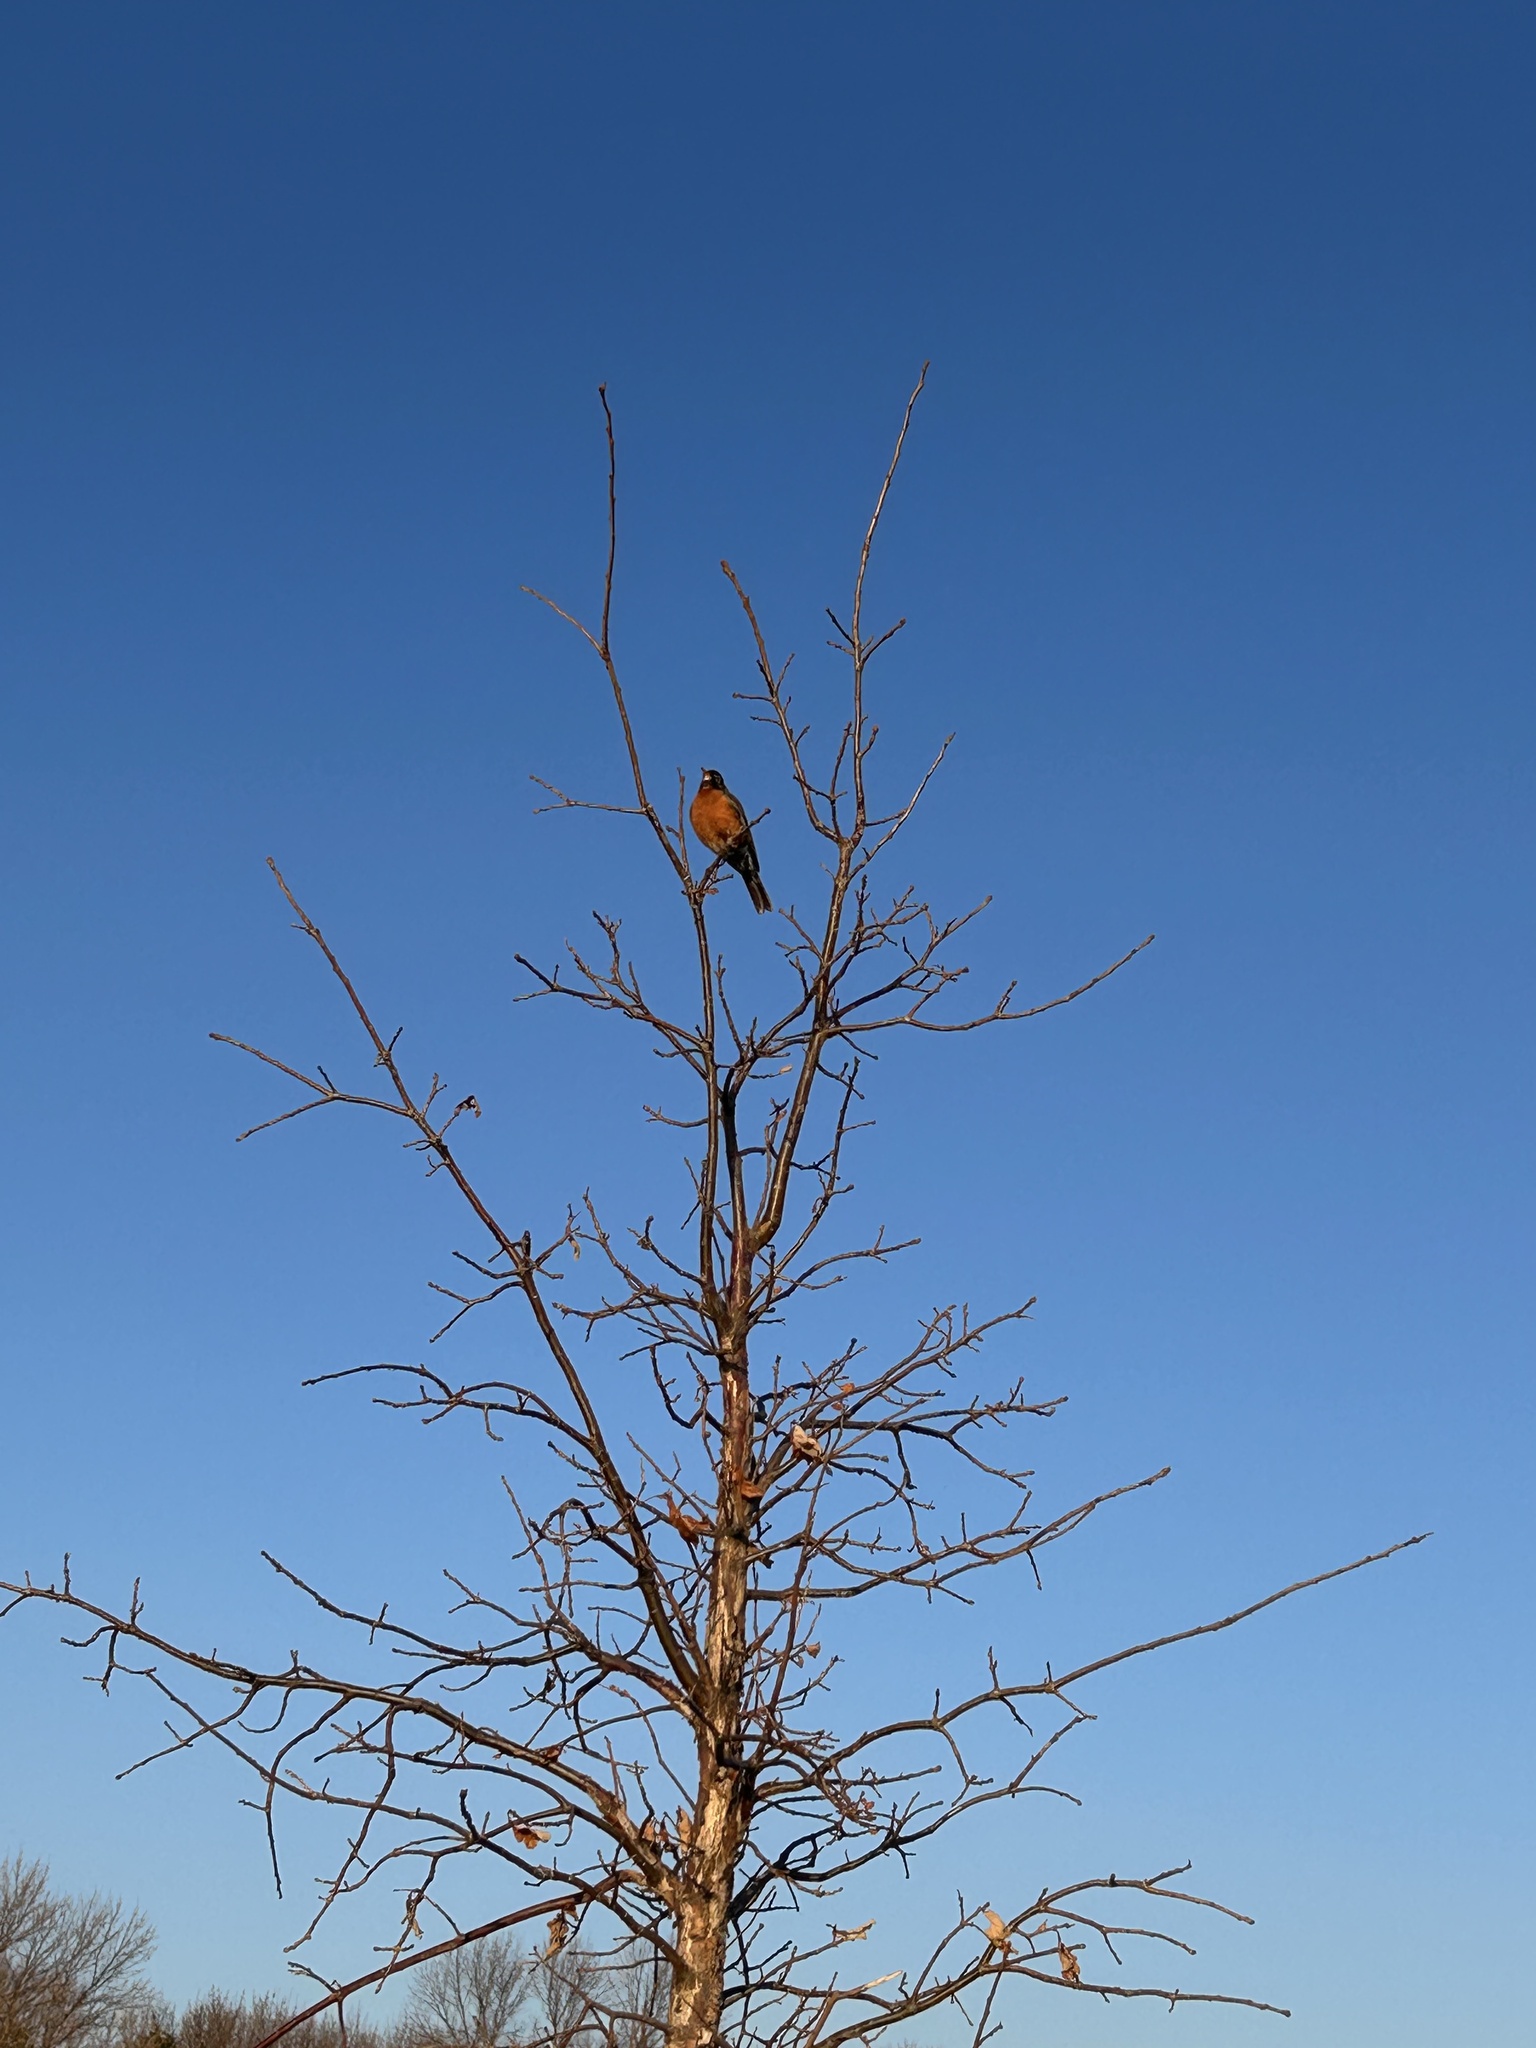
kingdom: Animalia
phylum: Chordata
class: Aves
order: Passeriformes
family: Turdidae
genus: Turdus
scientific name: Turdus migratorius
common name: American robin
